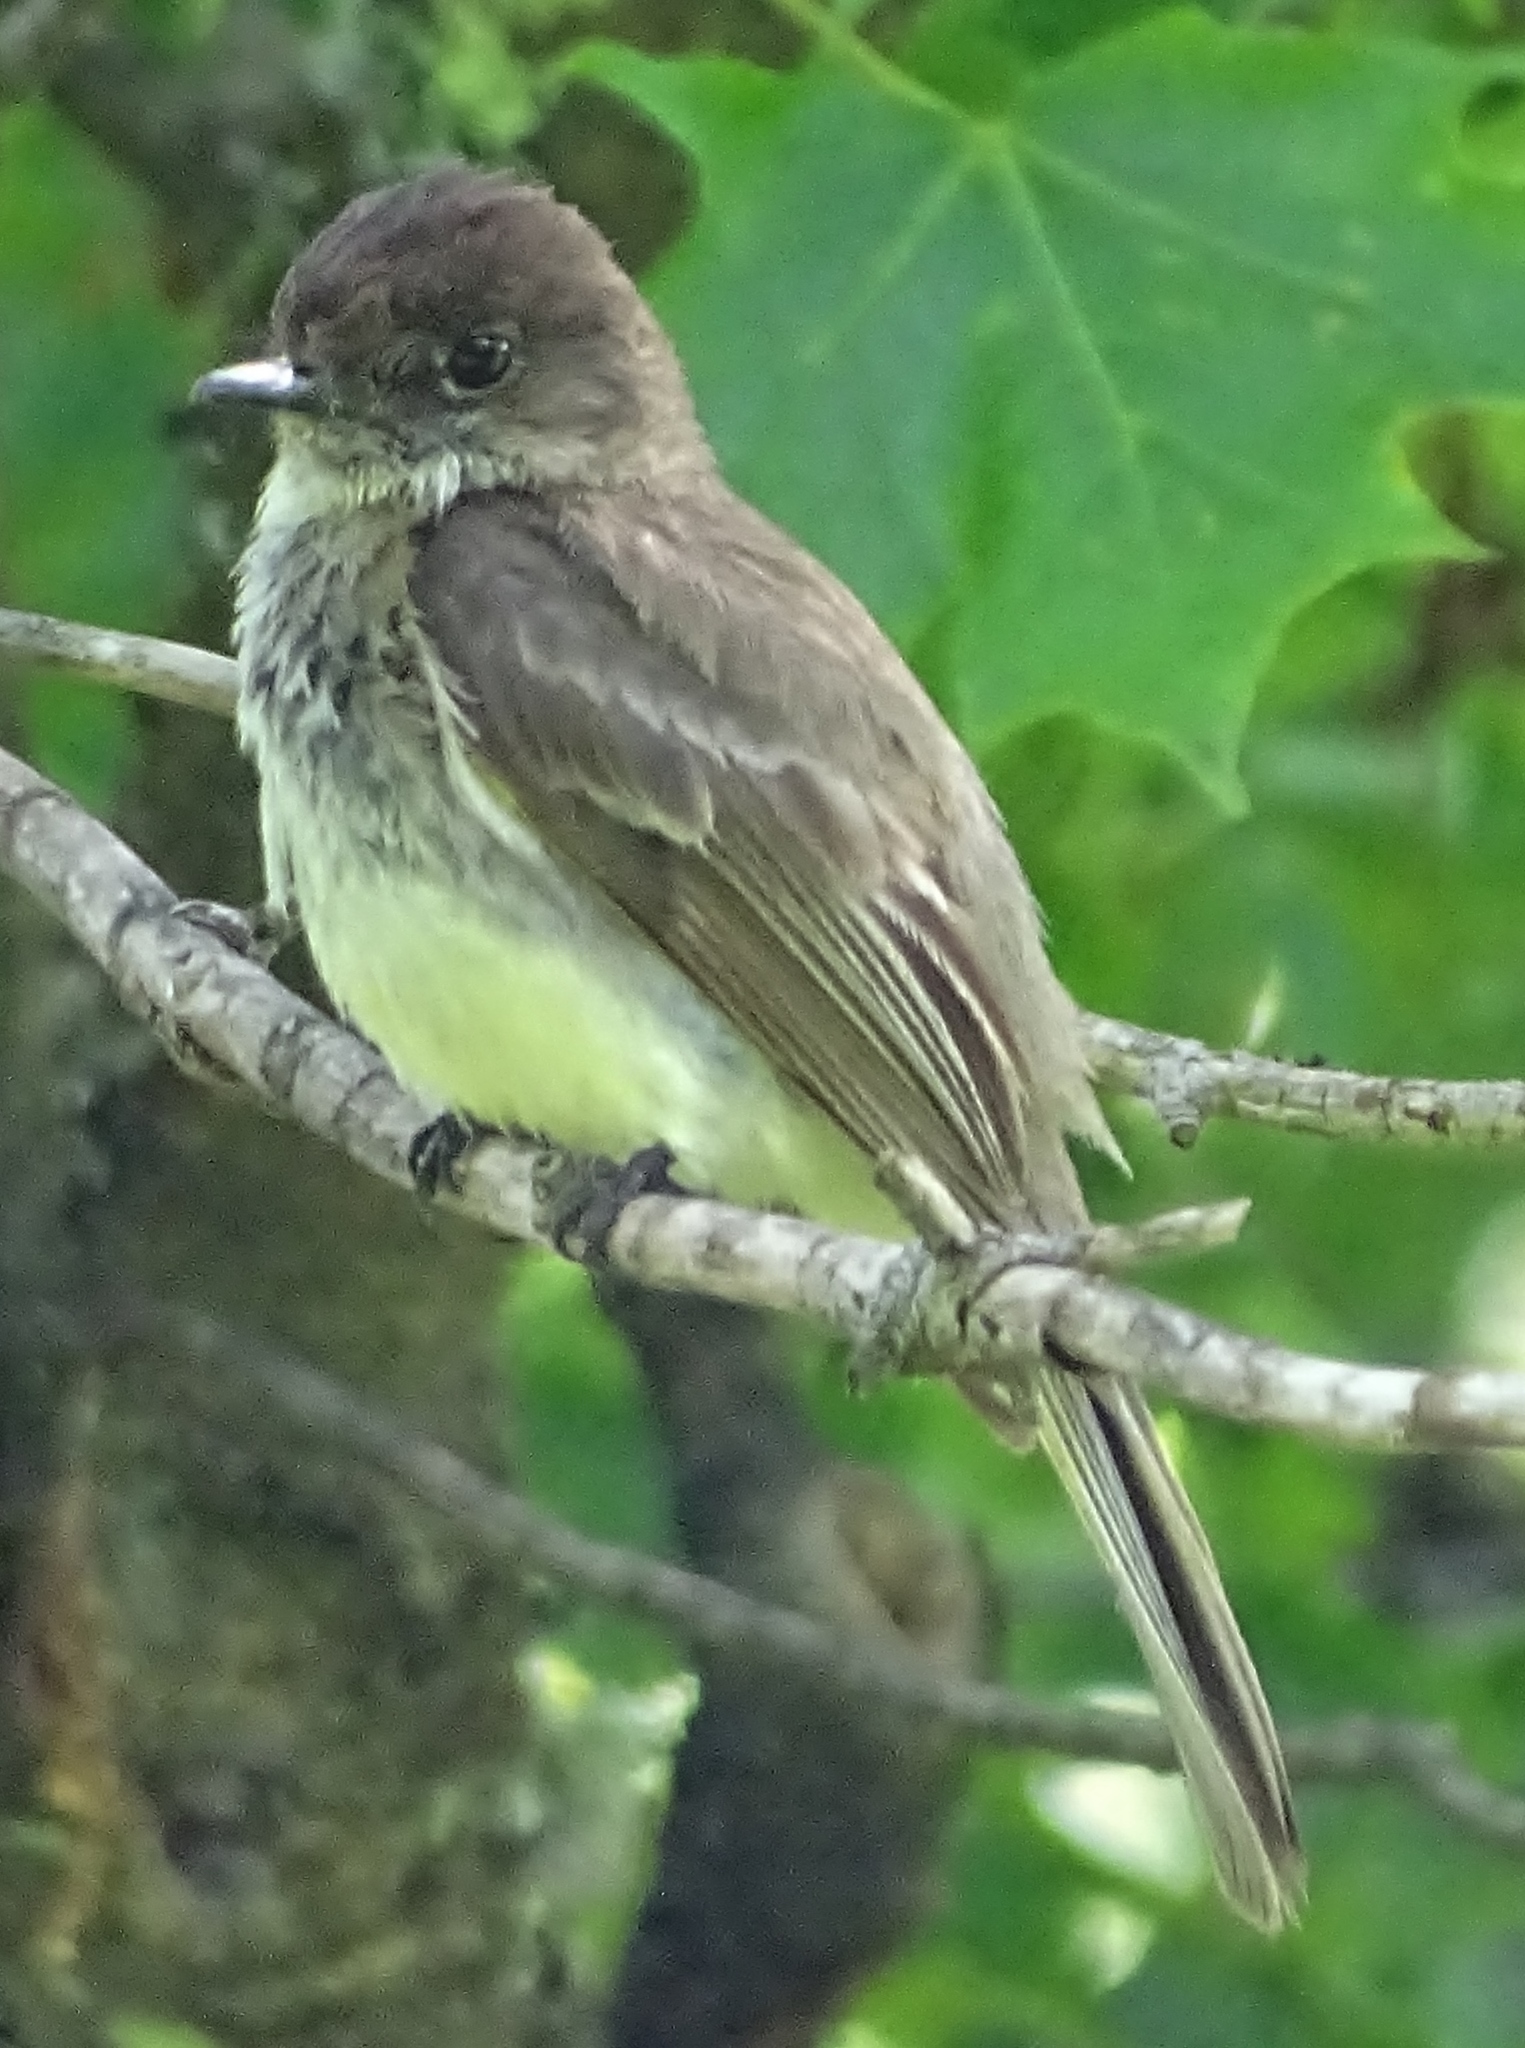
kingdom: Animalia
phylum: Chordata
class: Aves
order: Passeriformes
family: Tyrannidae
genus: Sayornis
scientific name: Sayornis phoebe
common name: Eastern phoebe
